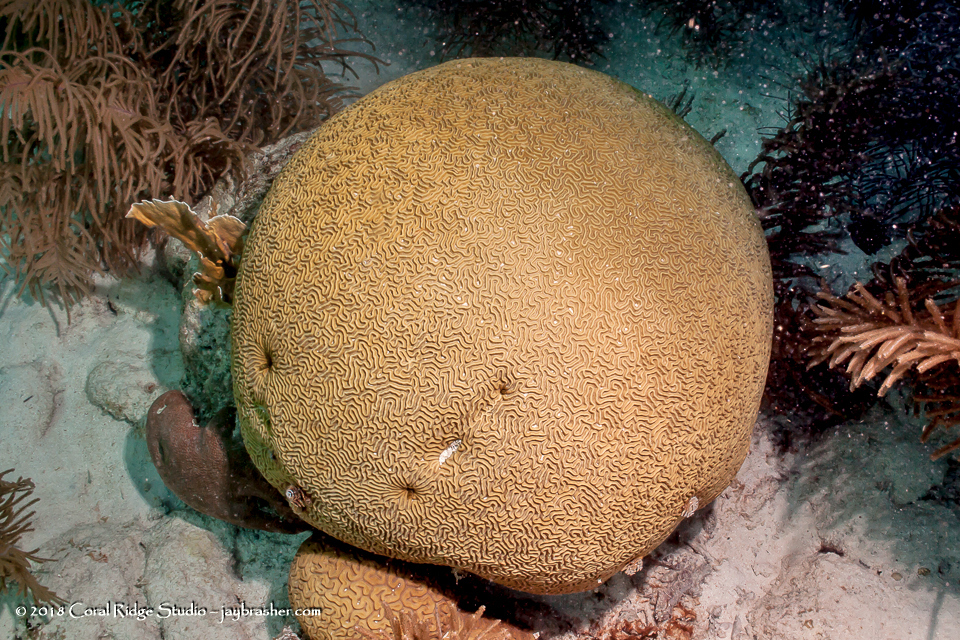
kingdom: Animalia
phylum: Cnidaria
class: Anthozoa
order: Scleractinia
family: Faviidae
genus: Pseudodiploria
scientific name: Pseudodiploria strigosa
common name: Symmetrical brain coral
